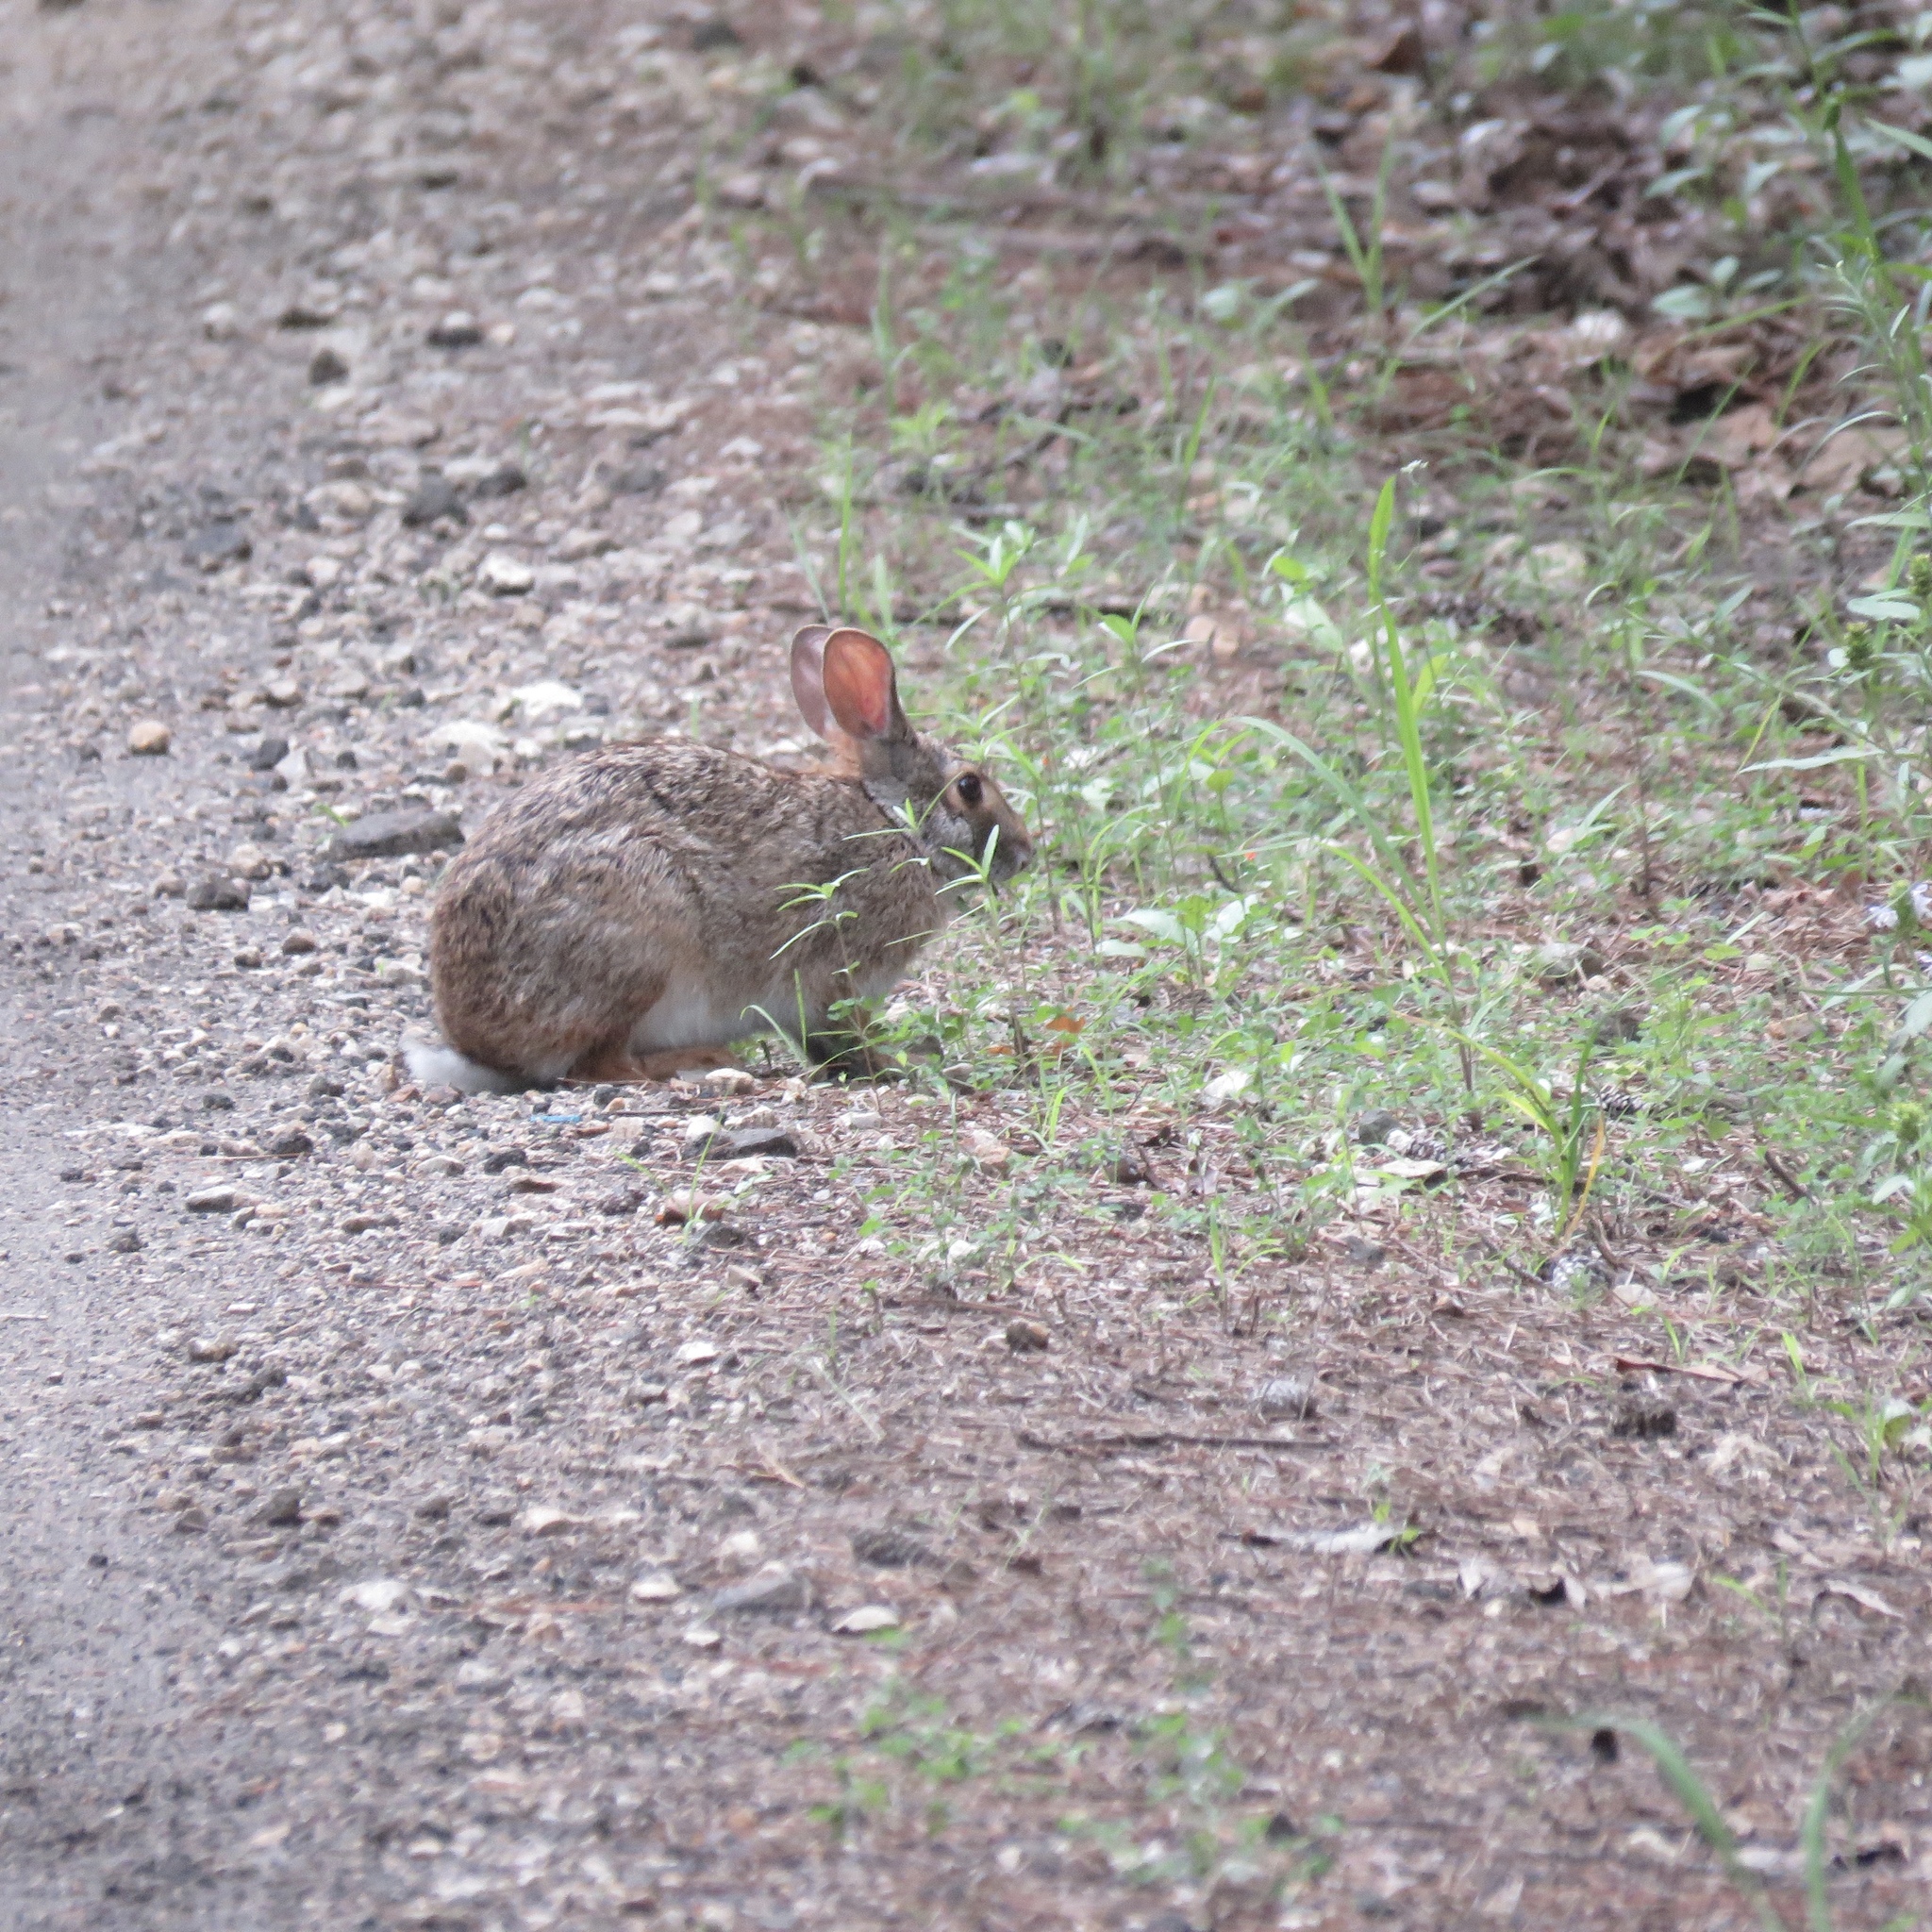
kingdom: Animalia
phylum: Chordata
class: Mammalia
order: Lagomorpha
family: Leporidae
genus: Sylvilagus
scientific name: Sylvilagus floridanus
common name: Eastern cottontail
